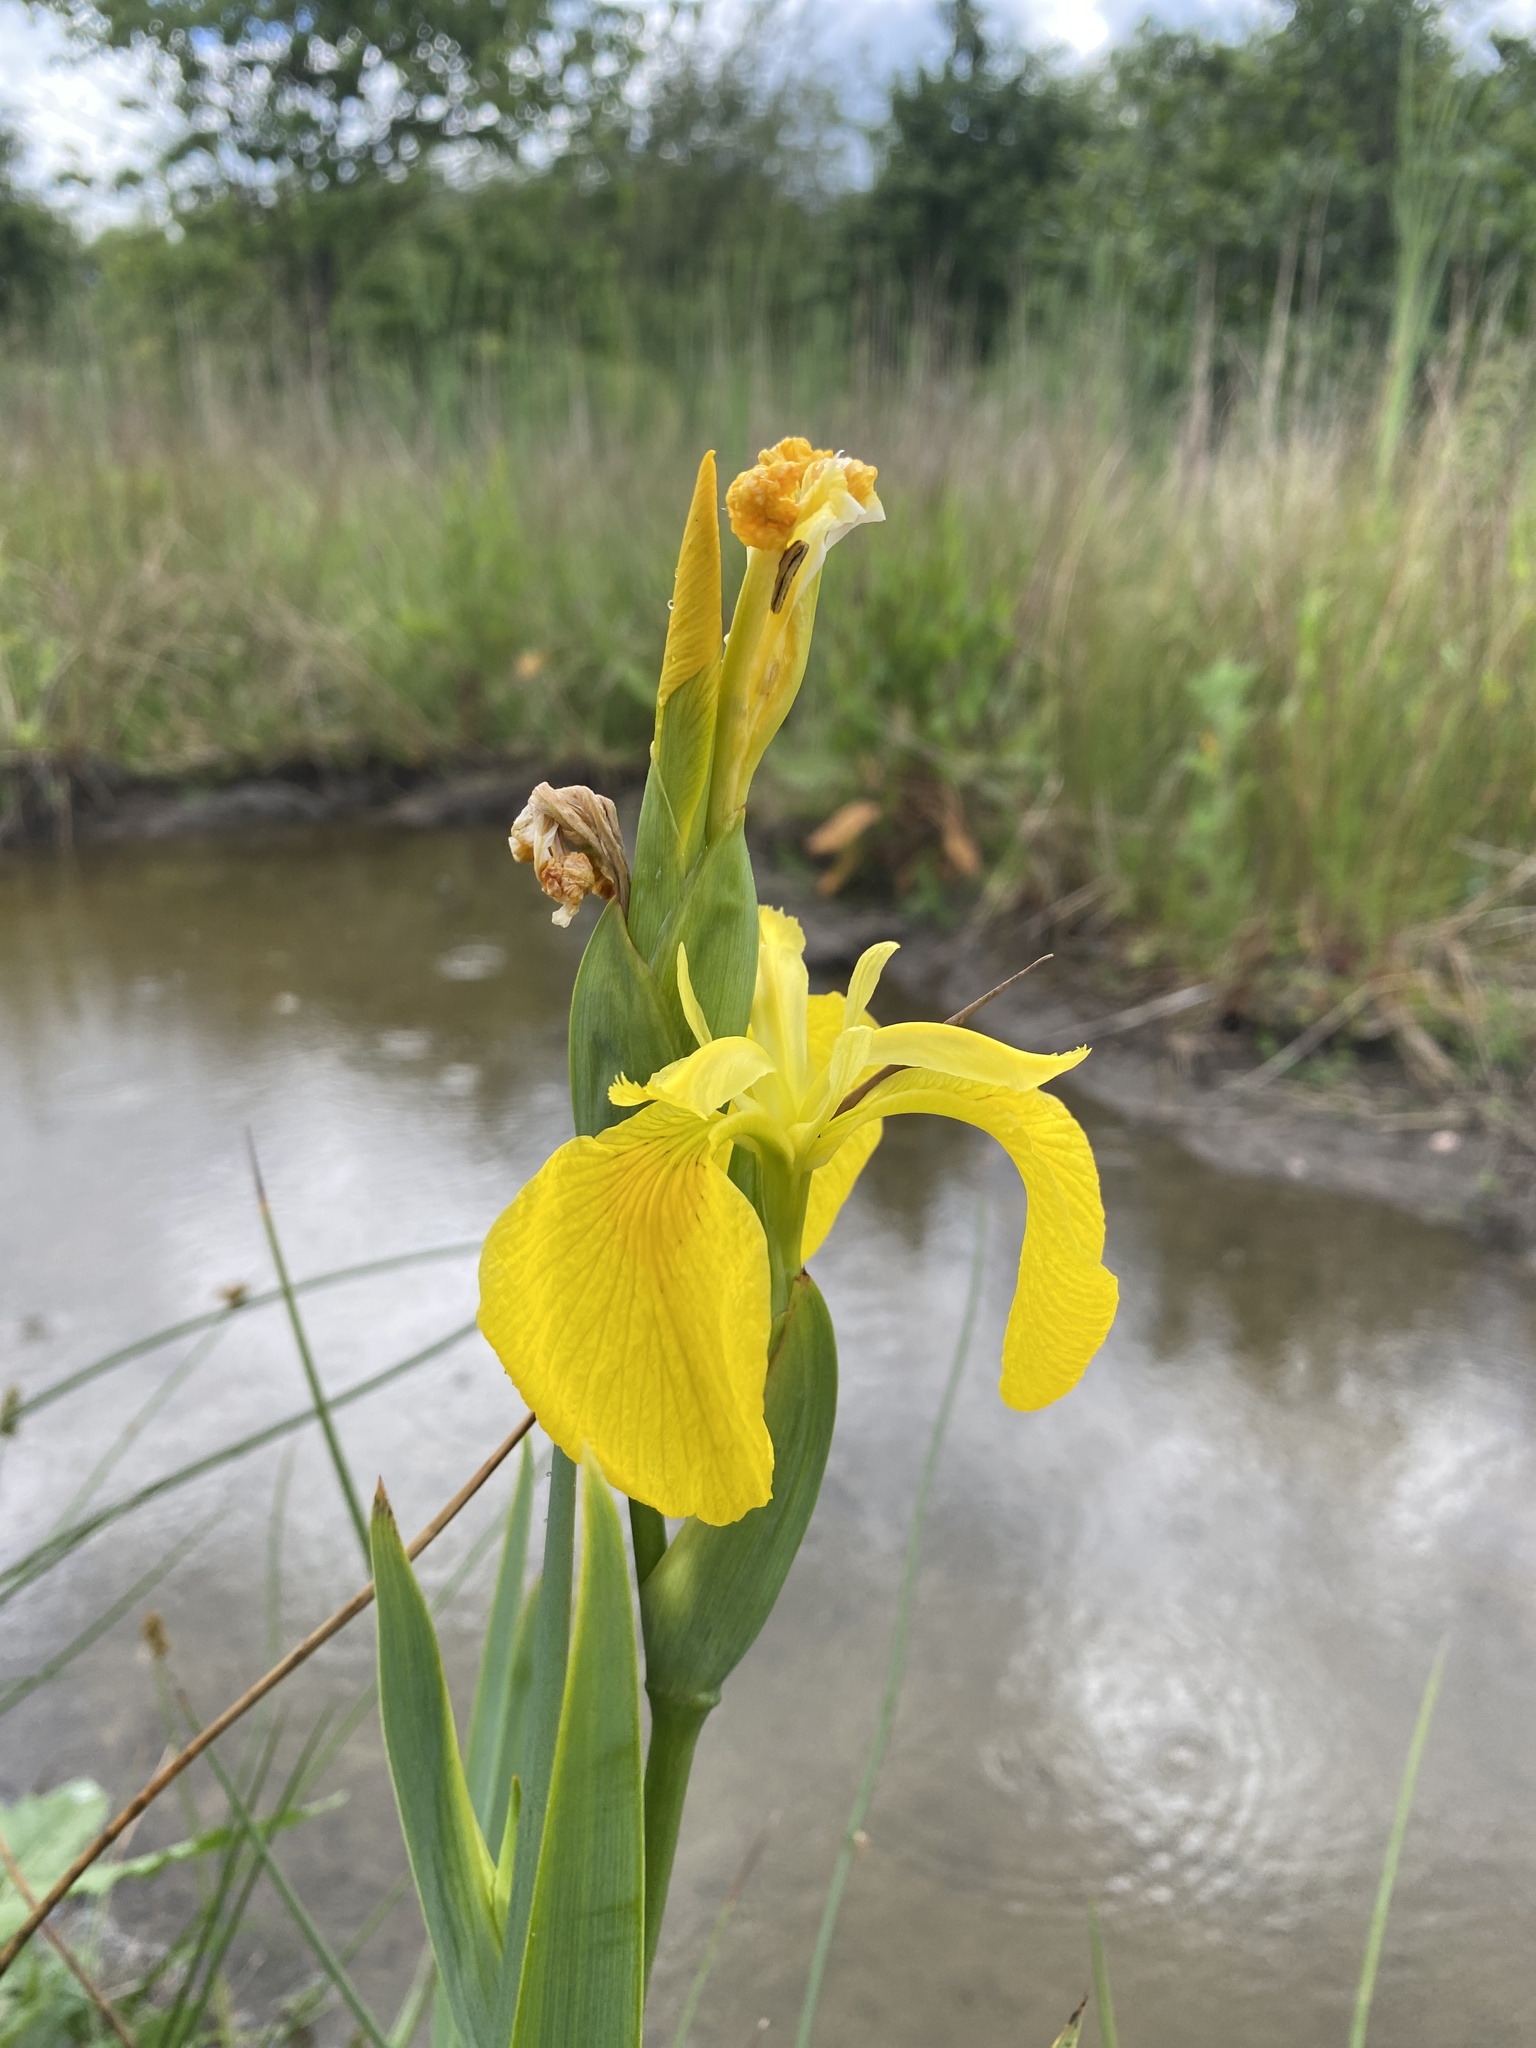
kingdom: Plantae
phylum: Tracheophyta
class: Liliopsida
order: Asparagales
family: Iridaceae
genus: Iris
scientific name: Iris pseudacorus
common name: Yellow flag
